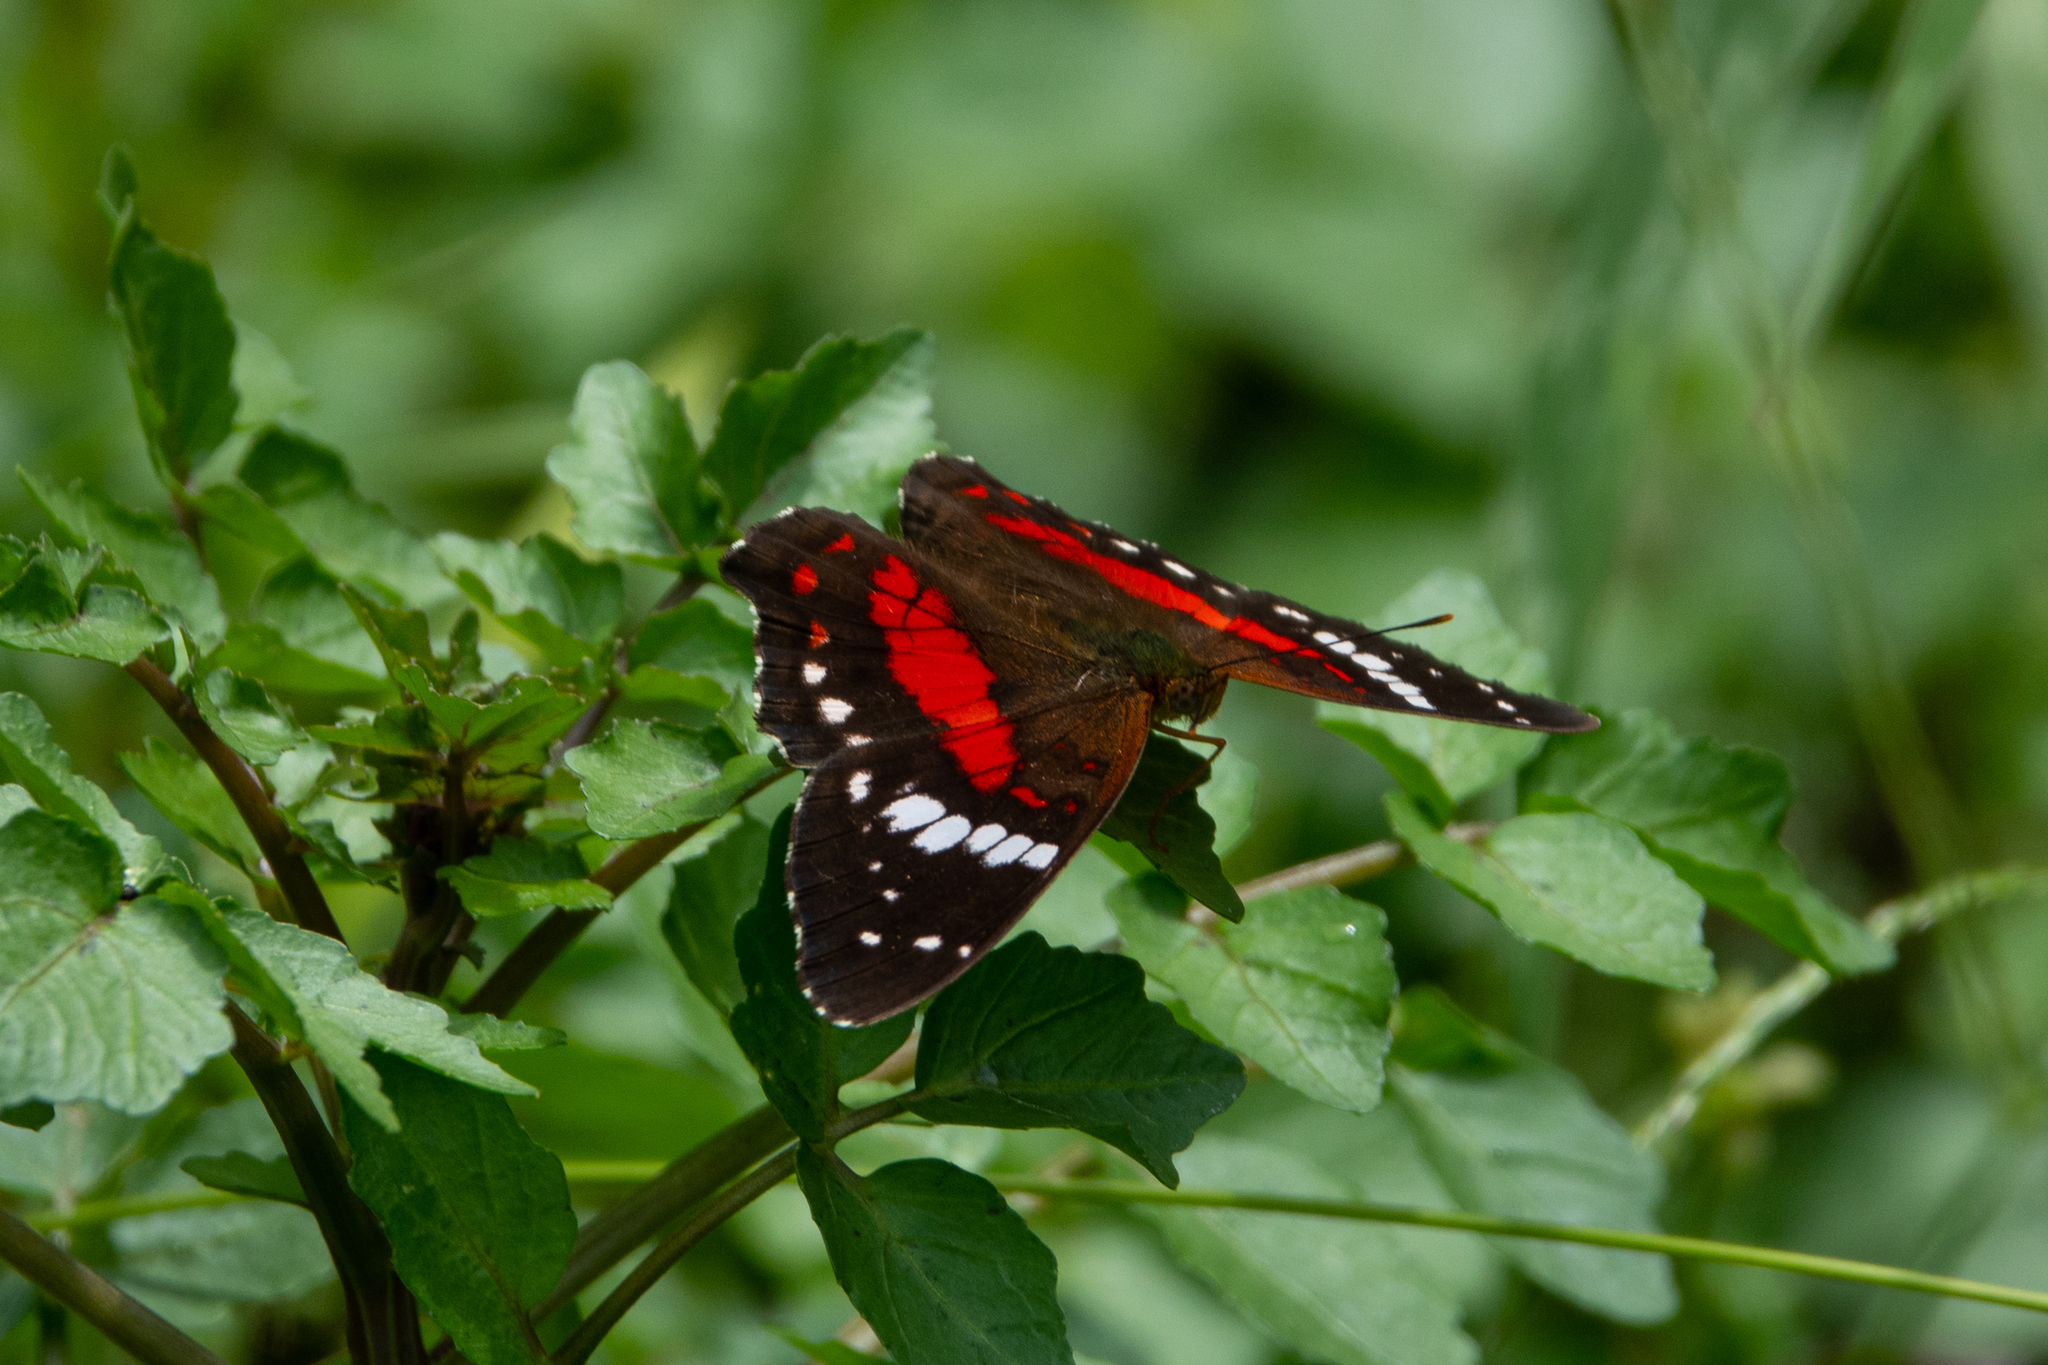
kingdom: Animalia
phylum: Arthropoda
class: Insecta
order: Lepidoptera
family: Nymphalidae
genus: Anartia
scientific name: Anartia amathea
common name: Red peacock
